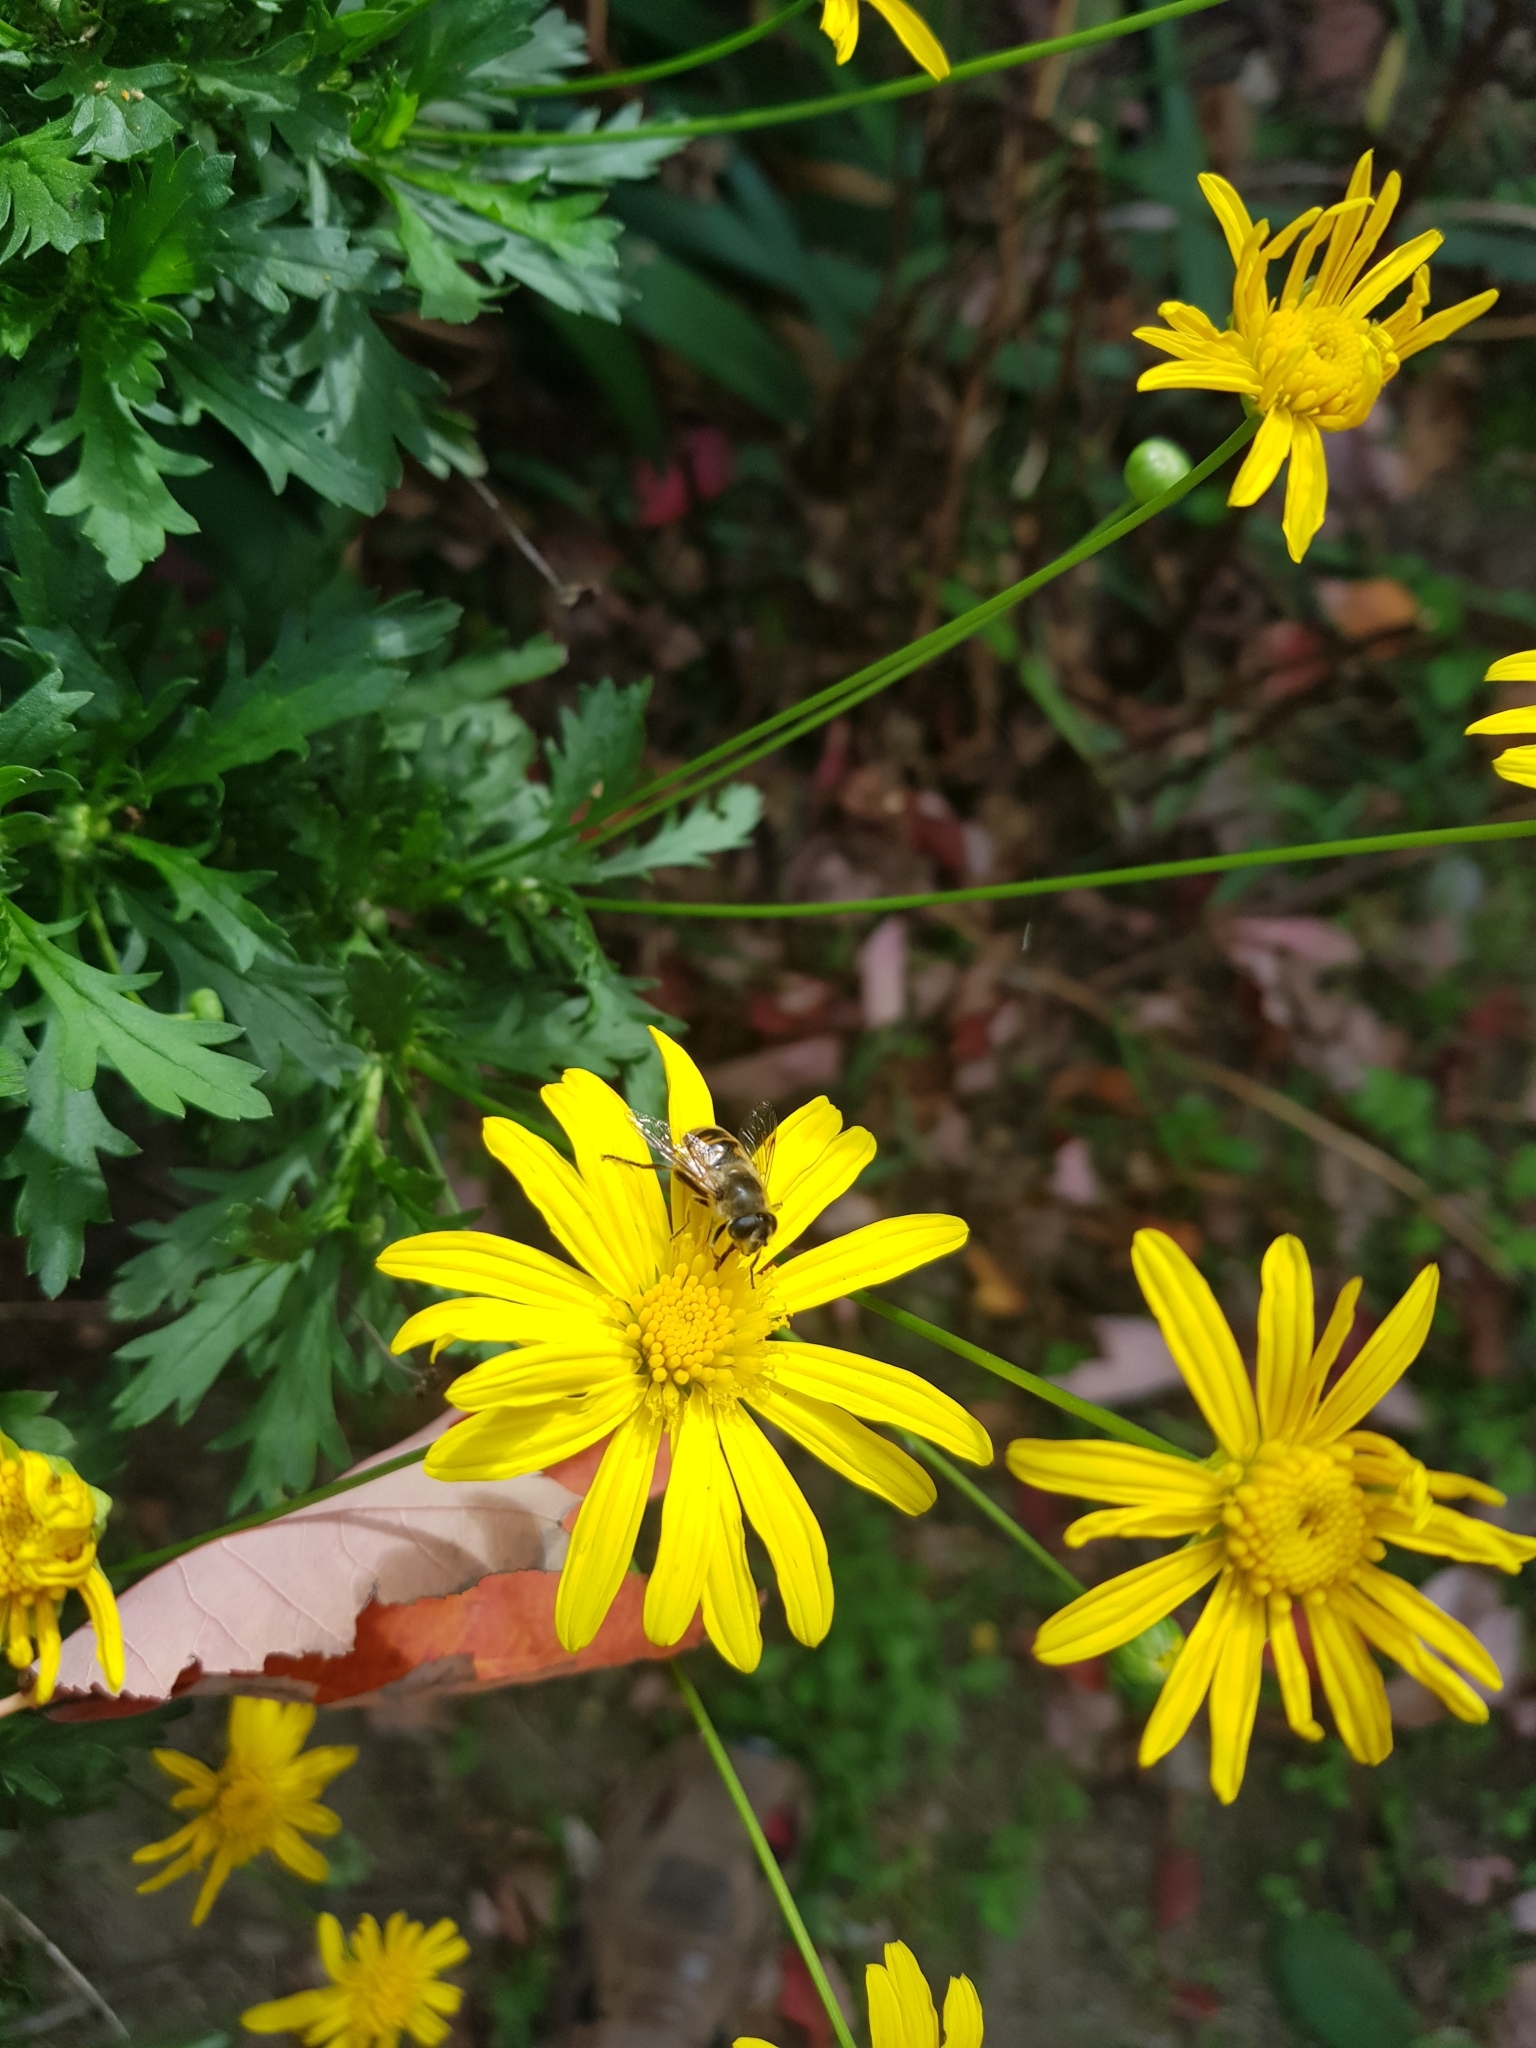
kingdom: Animalia
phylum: Arthropoda
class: Insecta
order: Diptera
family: Syrphidae
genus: Eristalis
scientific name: Eristalis tenax
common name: Drone fly
